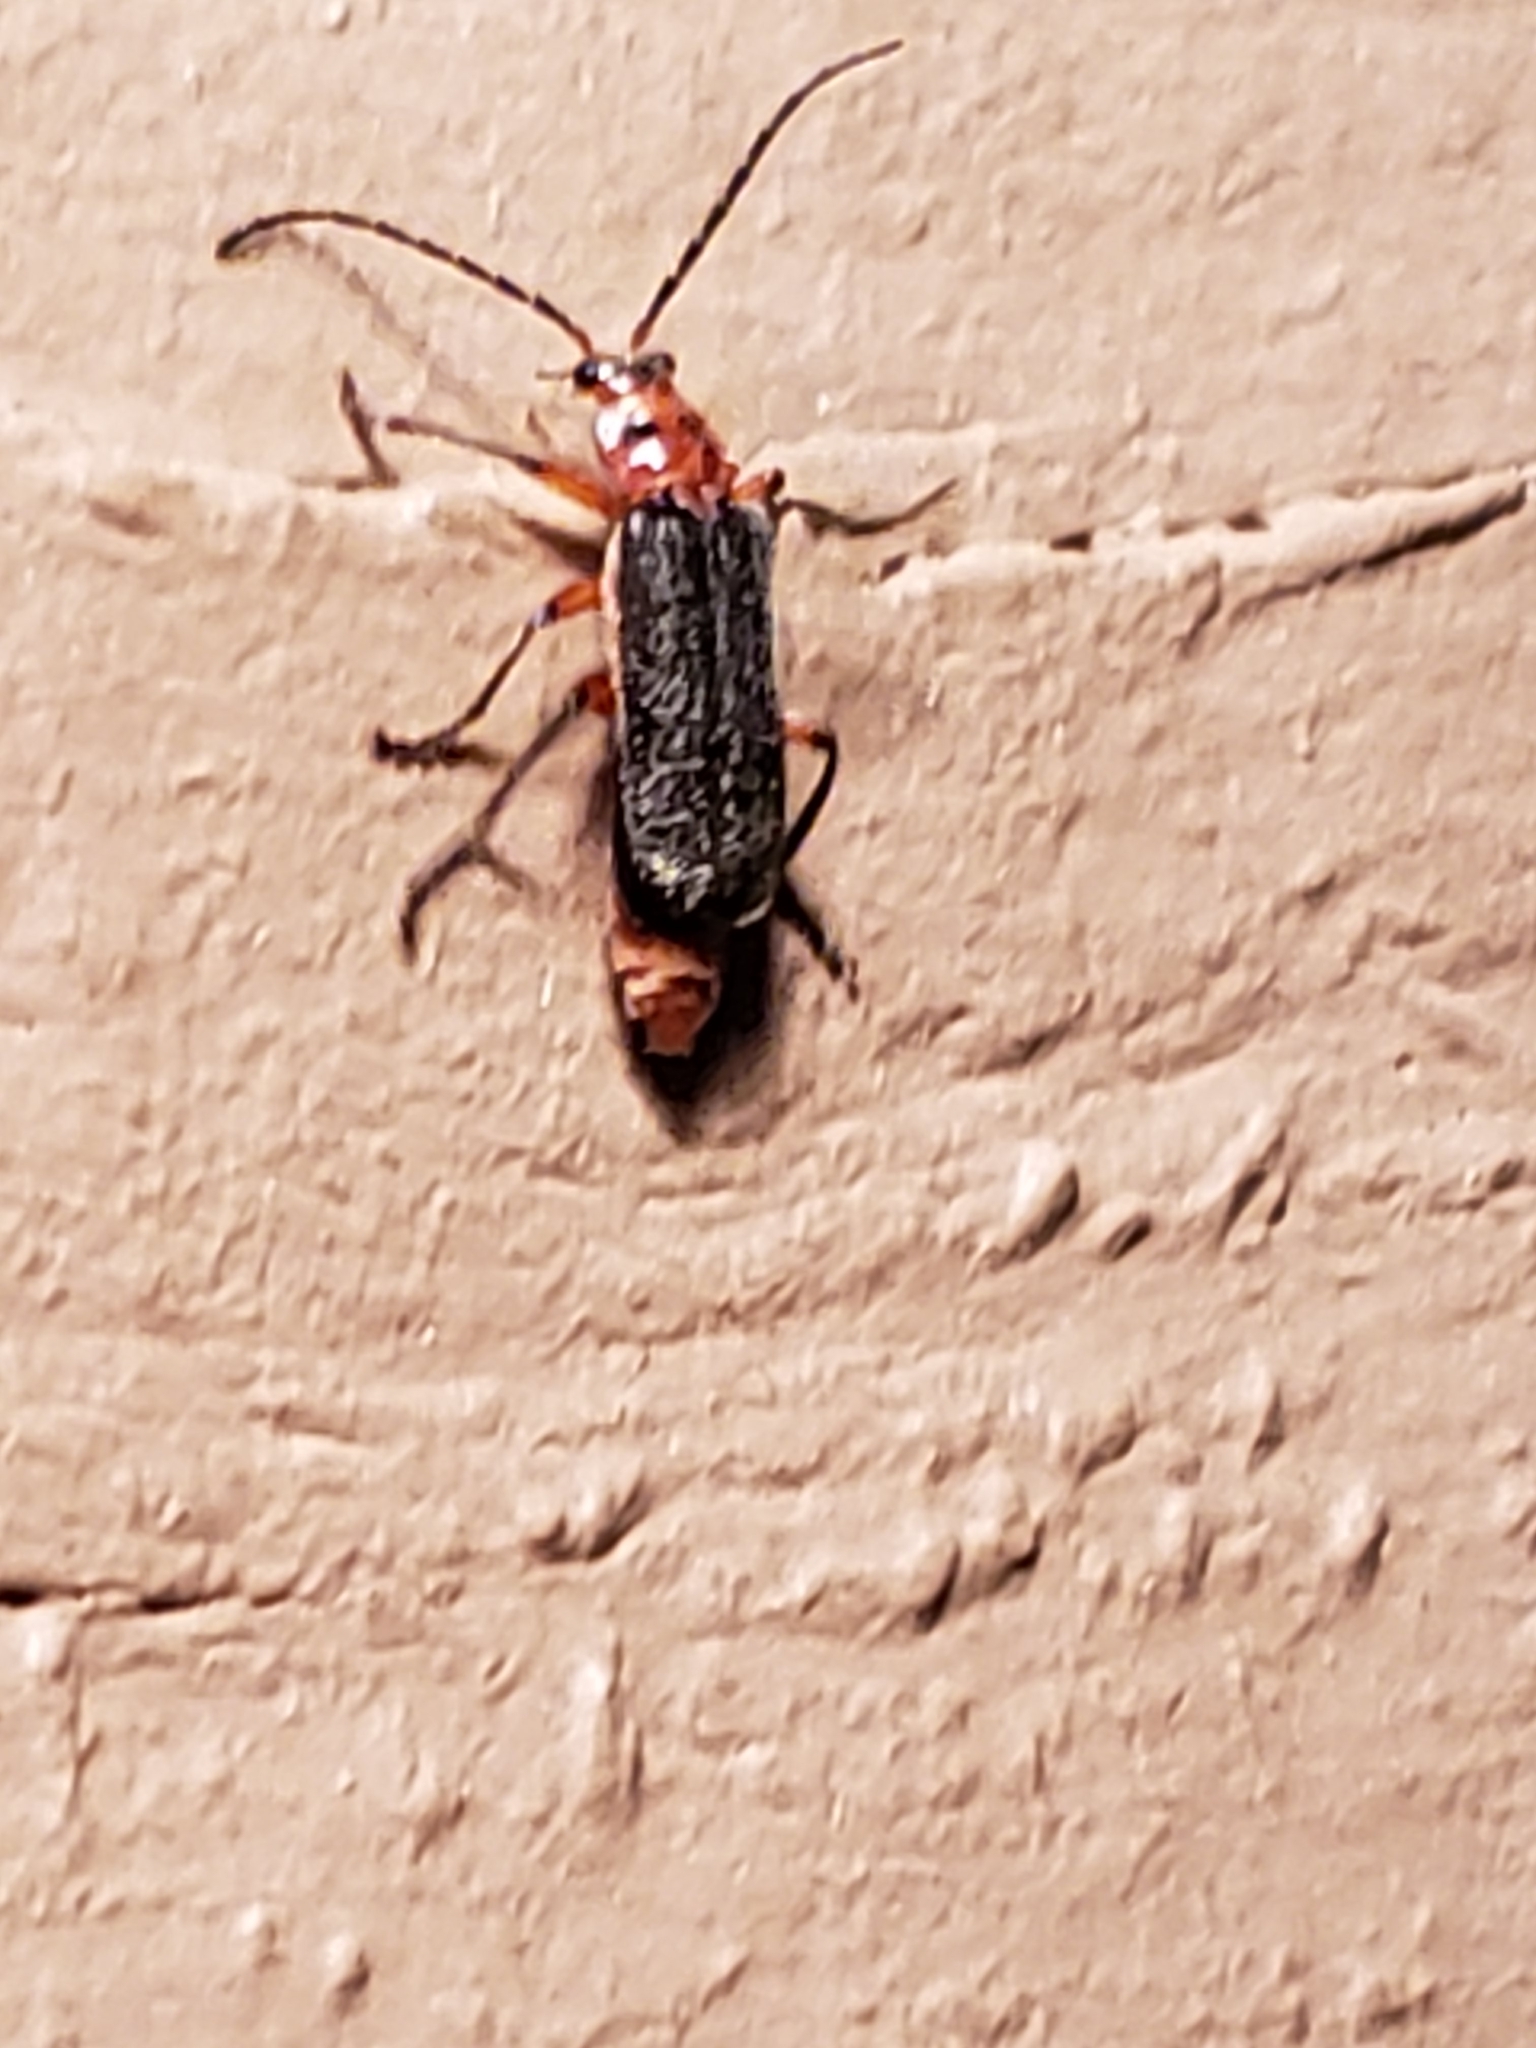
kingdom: Animalia
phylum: Arthropoda
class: Insecta
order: Coleoptera
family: Cantharidae
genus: Atalantycha
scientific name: Atalantycha bilineata
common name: Two-lined leatherwing
